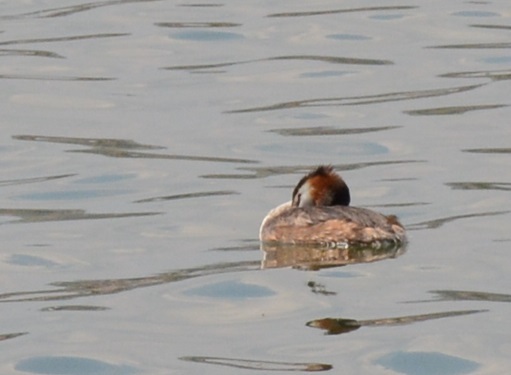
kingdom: Animalia
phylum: Chordata
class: Aves
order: Podicipediformes
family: Podicipedidae
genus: Podiceps
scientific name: Podiceps cristatus
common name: Great crested grebe
